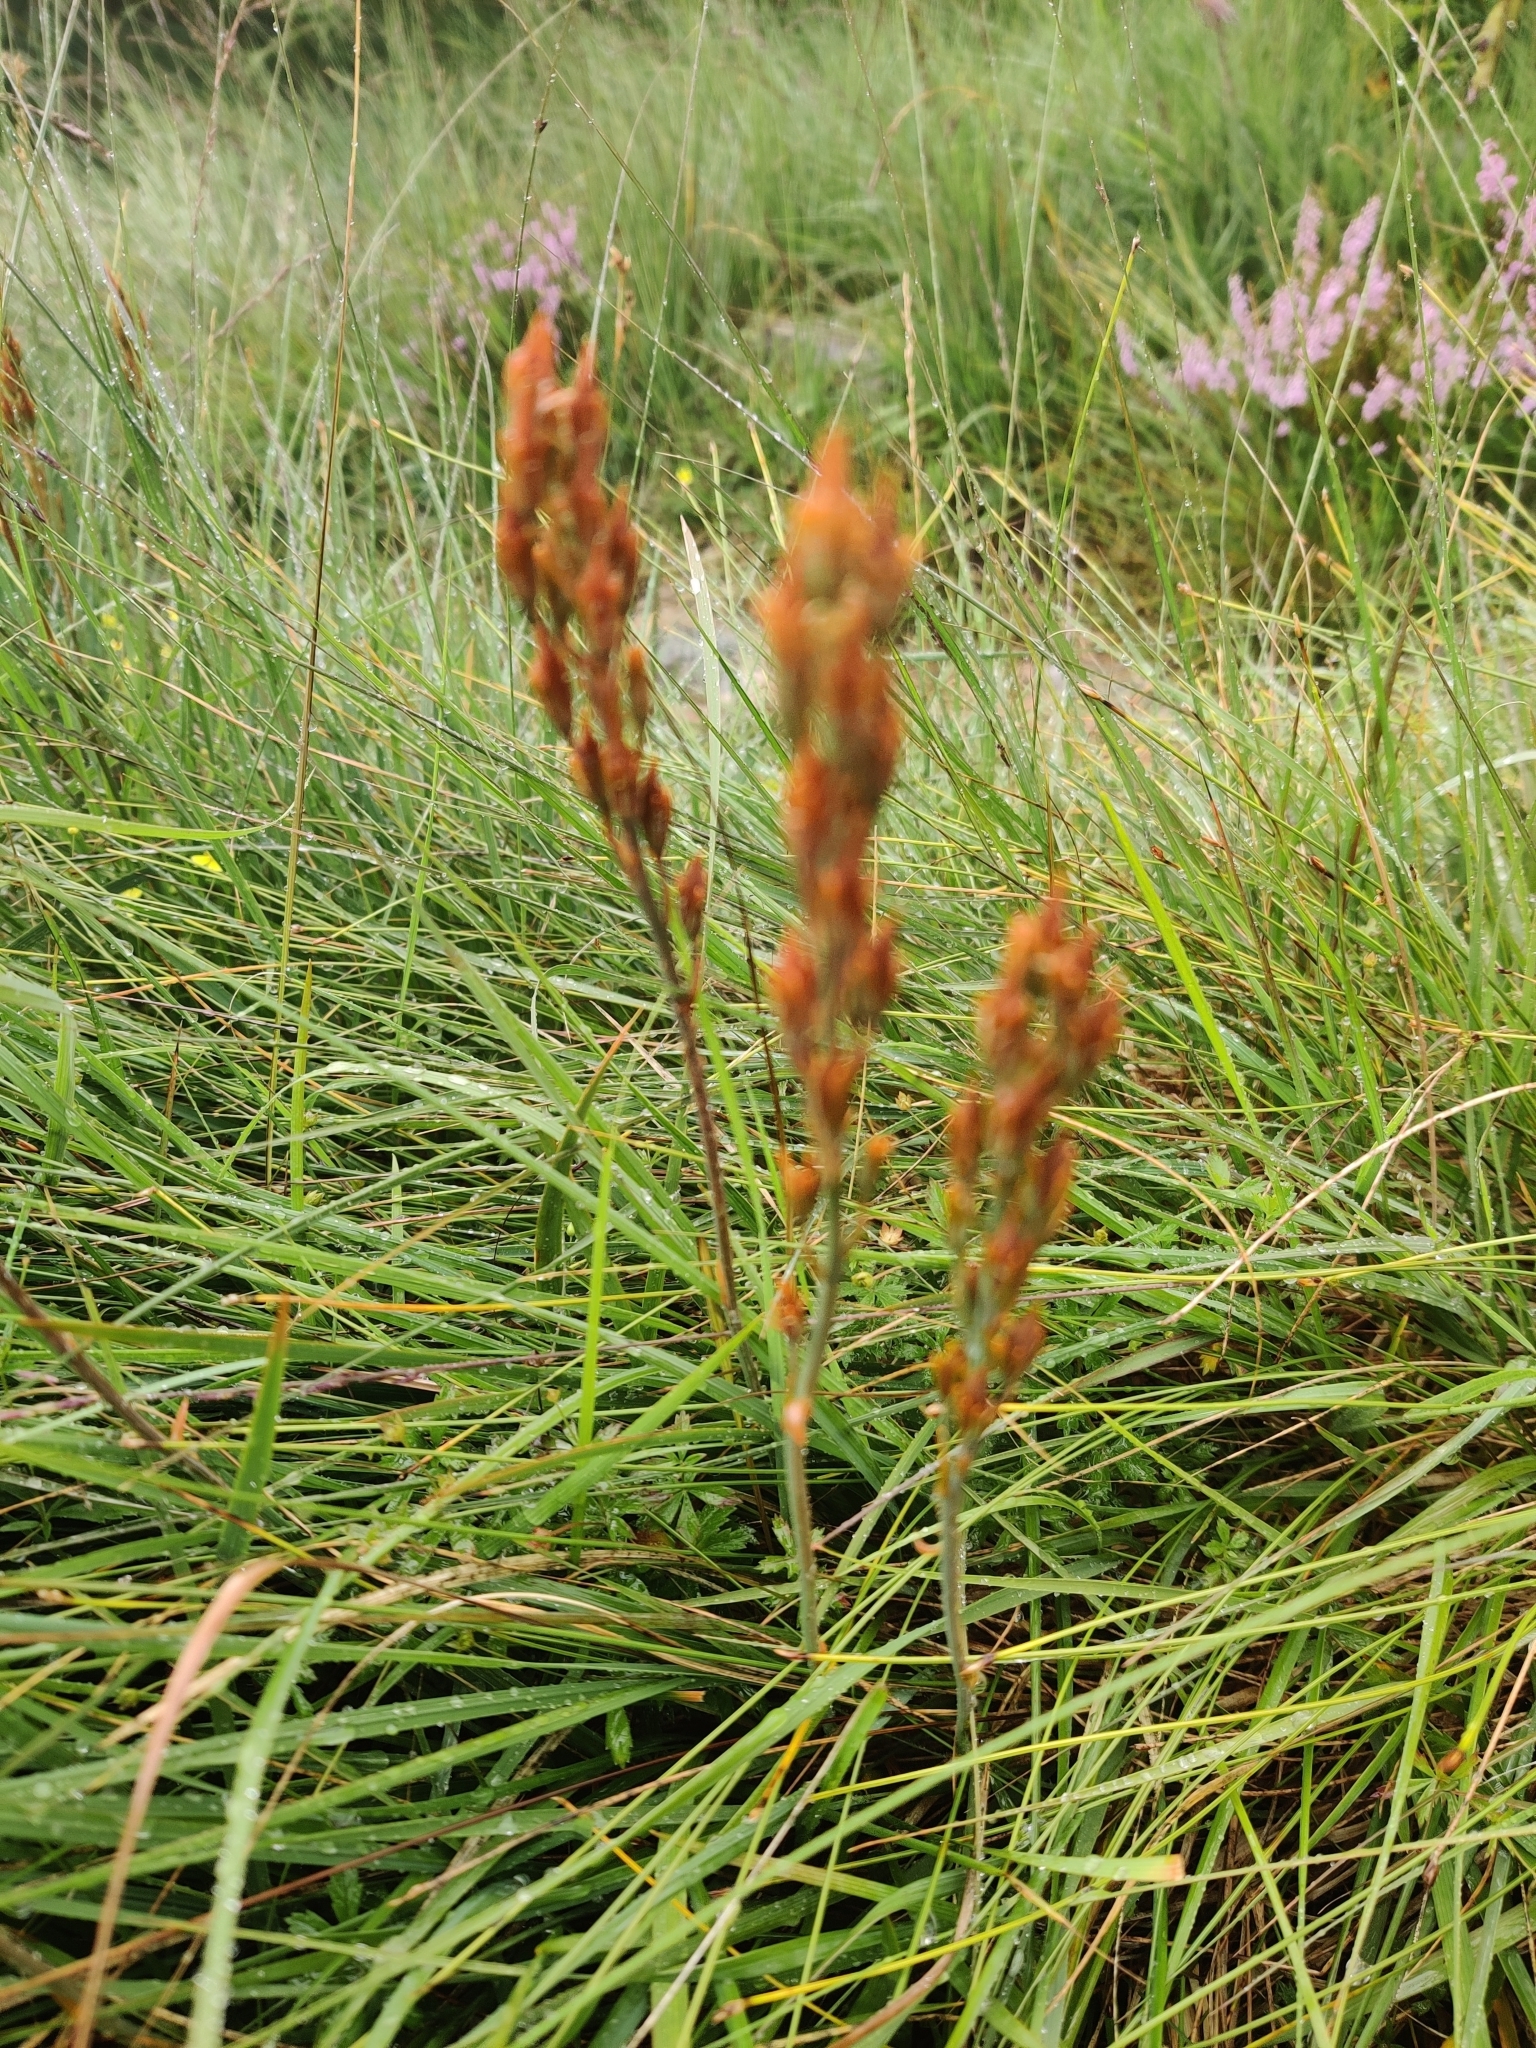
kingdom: Plantae
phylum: Tracheophyta
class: Liliopsida
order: Dioscoreales
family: Nartheciaceae
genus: Narthecium
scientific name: Narthecium ossifragum
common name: Bog asphodel
